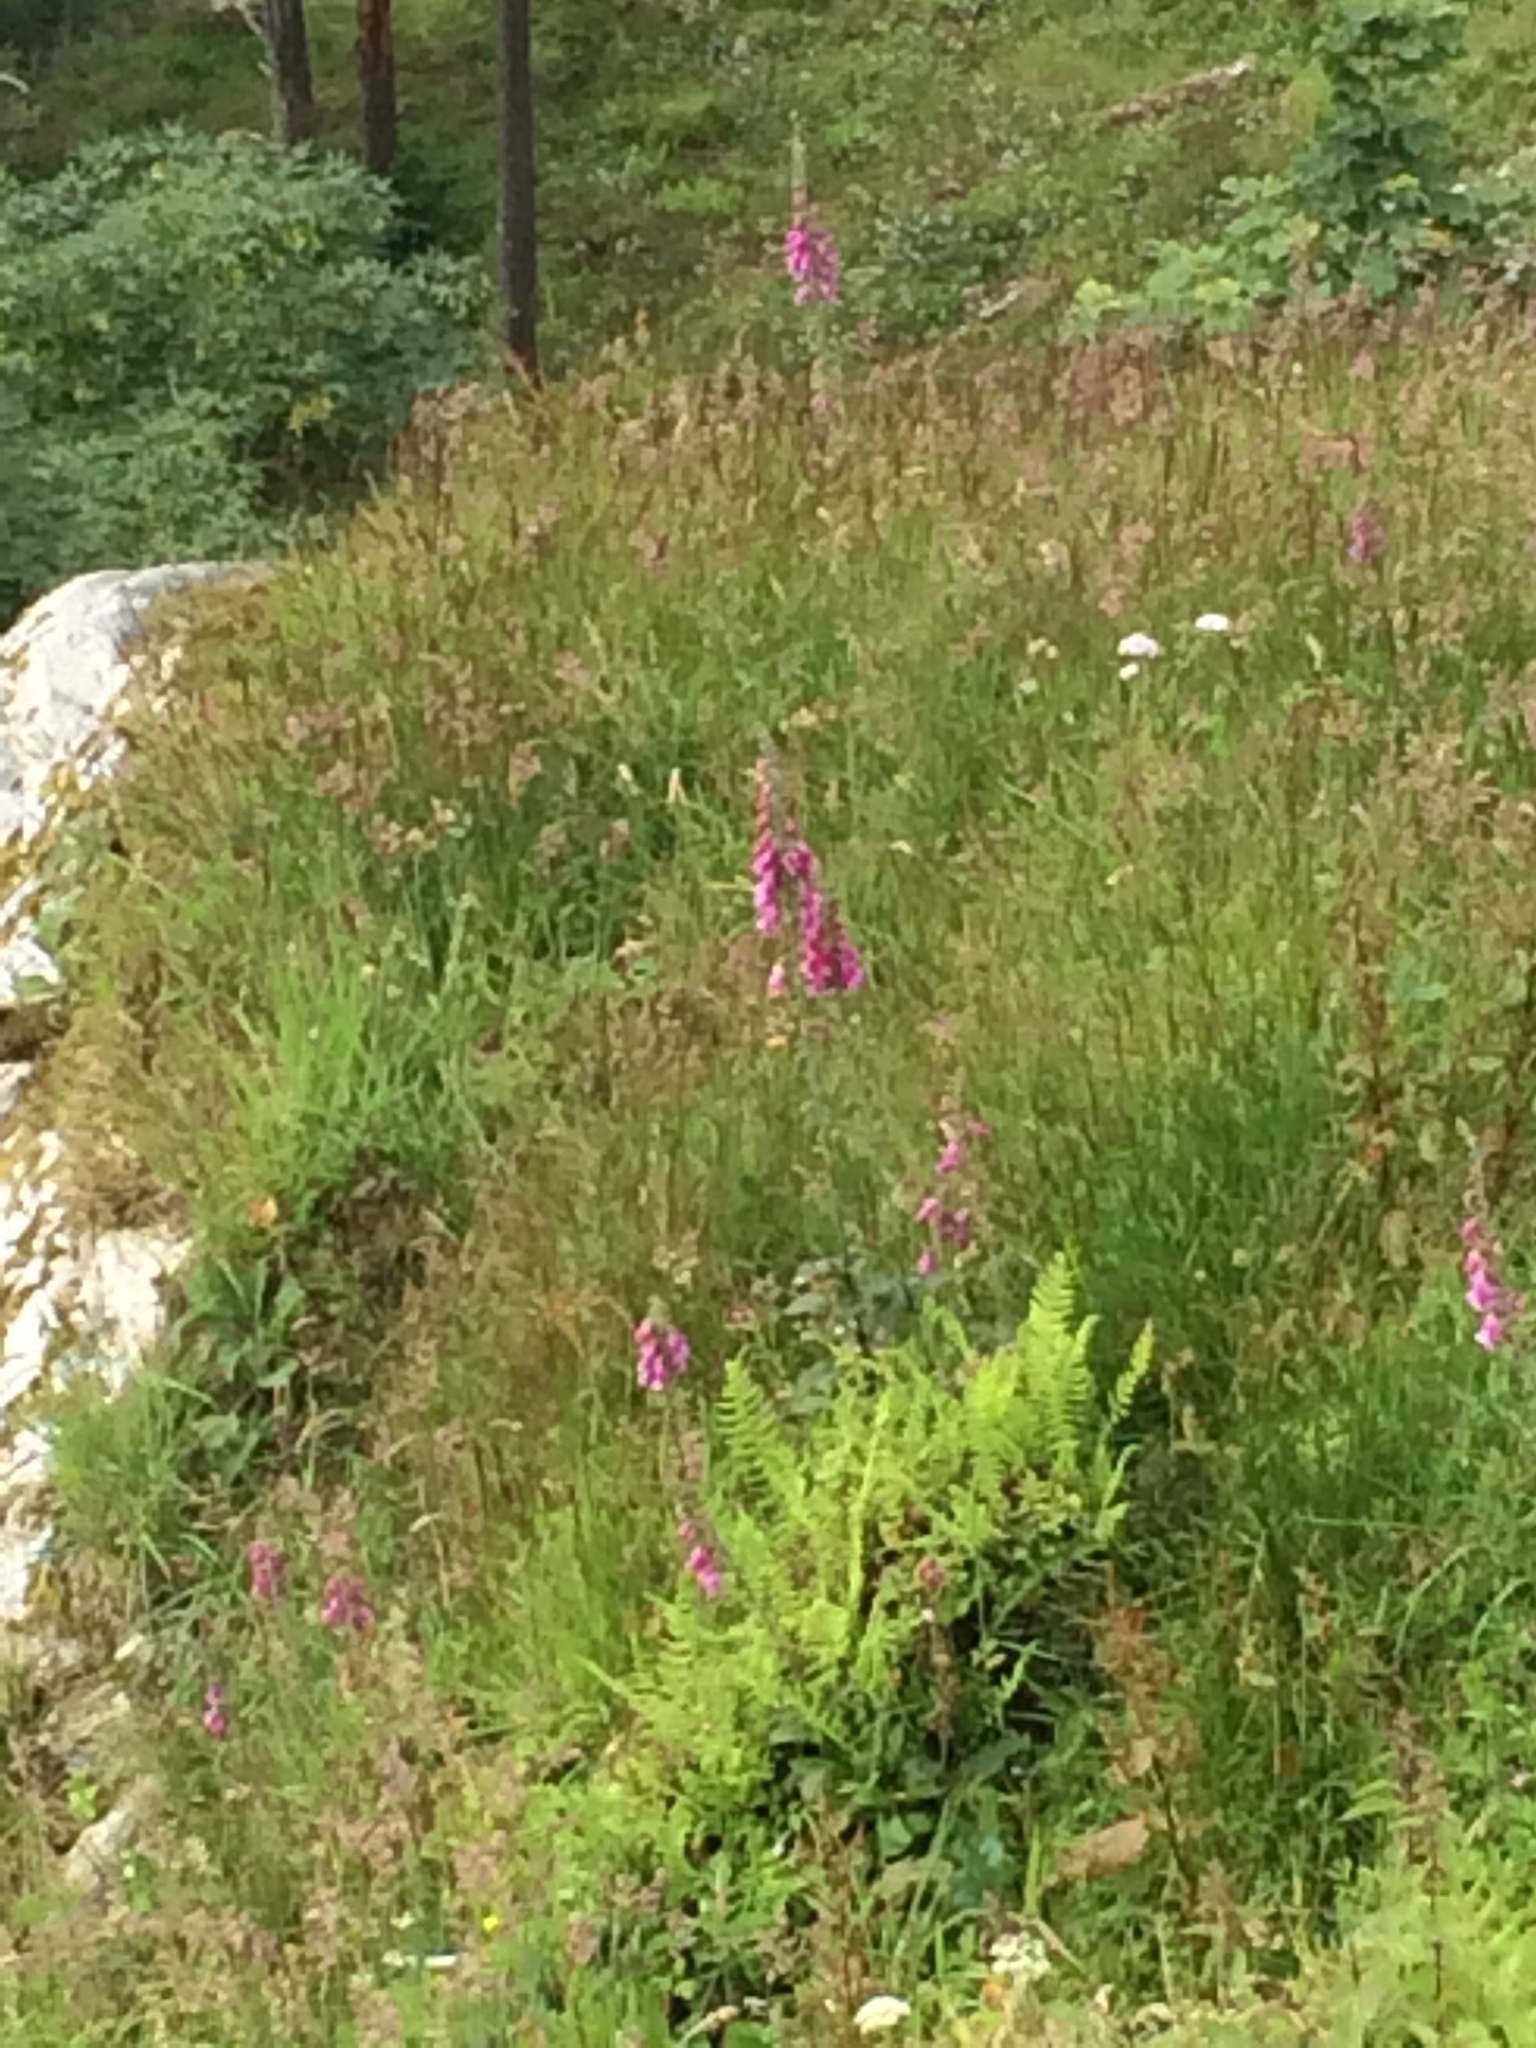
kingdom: Plantae
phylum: Tracheophyta
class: Magnoliopsida
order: Lamiales
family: Plantaginaceae
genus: Digitalis
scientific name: Digitalis purpurea
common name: Foxglove
